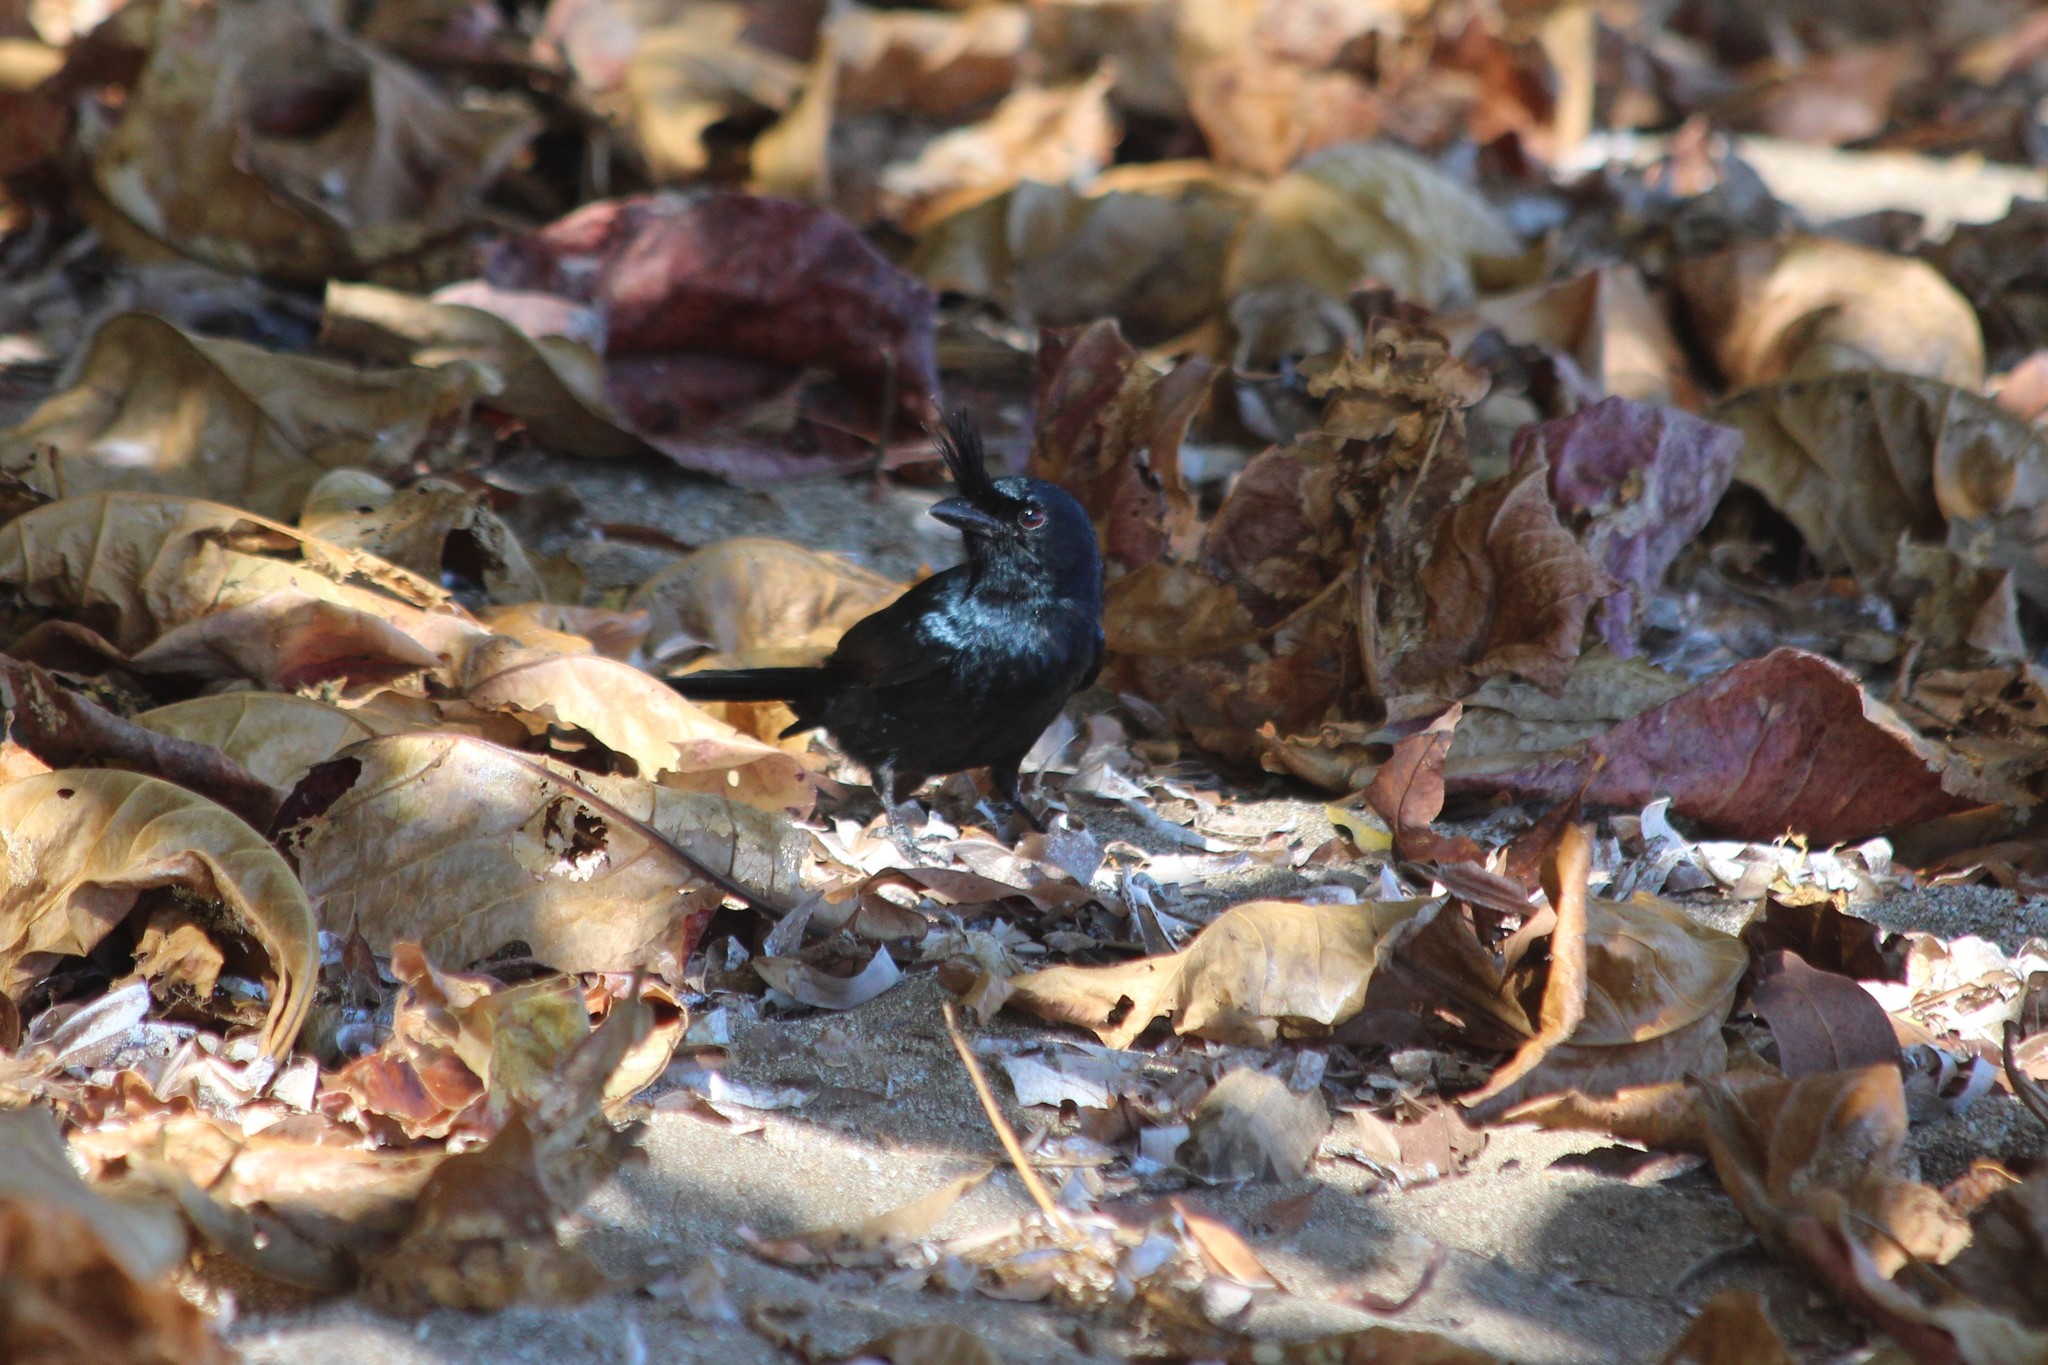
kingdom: Animalia
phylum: Chordata
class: Aves
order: Passeriformes
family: Dicruridae
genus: Dicrurus
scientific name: Dicrurus forficatus
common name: Crested drongo
